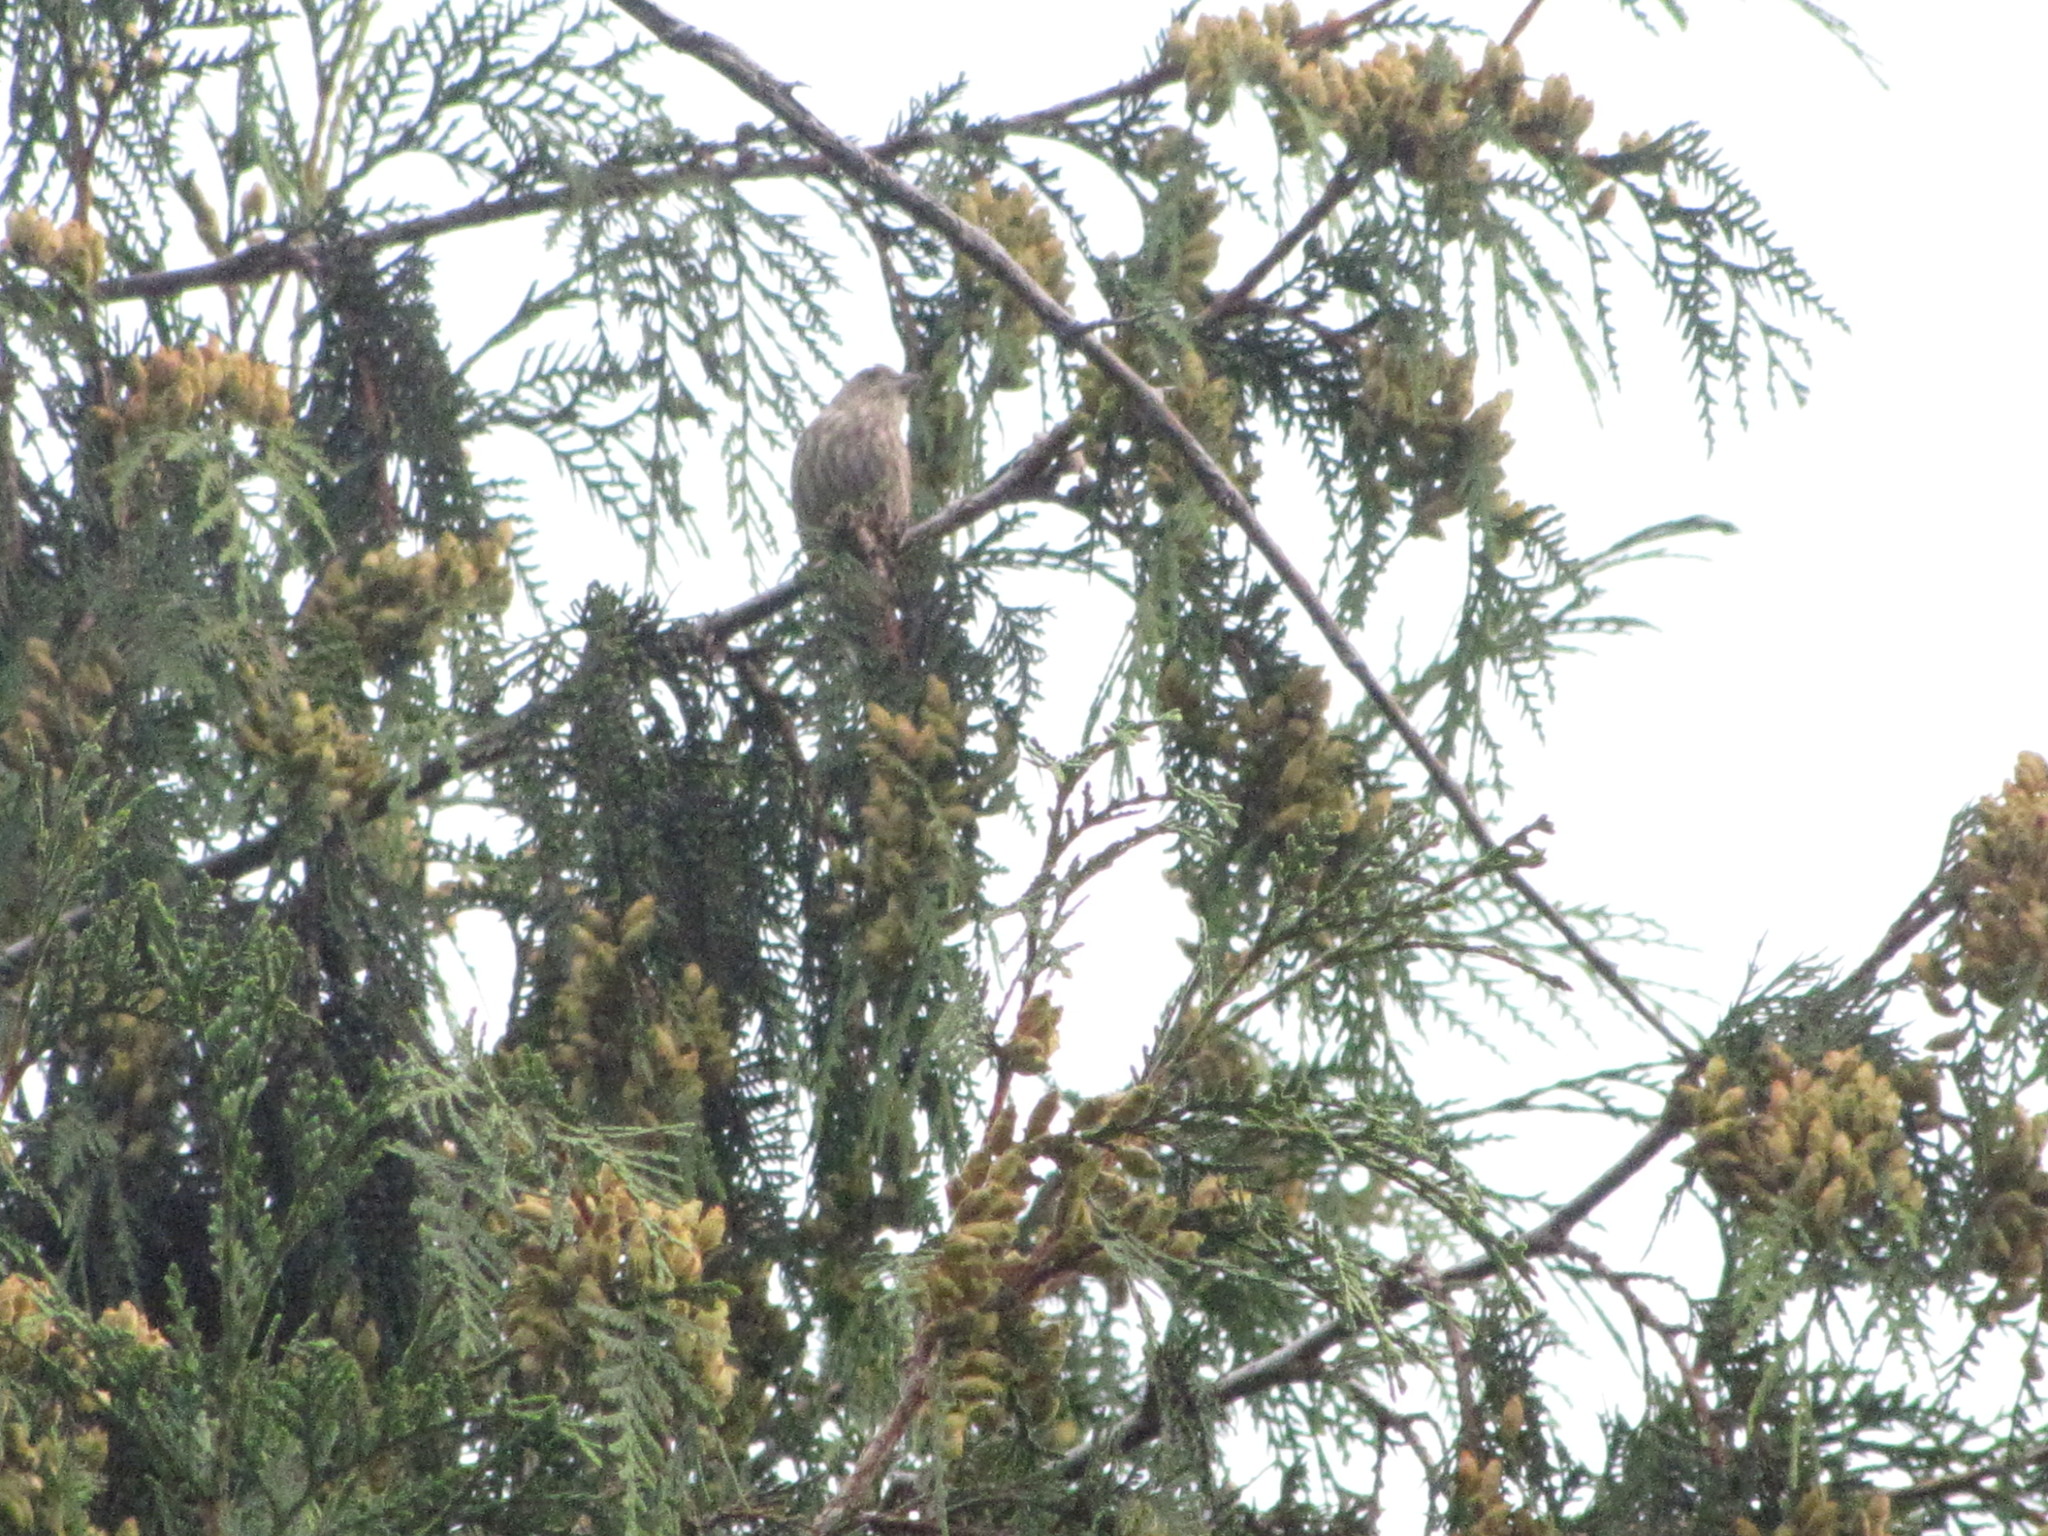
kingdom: Animalia
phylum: Chordata
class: Aves
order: Passeriformes
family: Fringillidae
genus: Haemorhous
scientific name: Haemorhous mexicanus
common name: House finch
